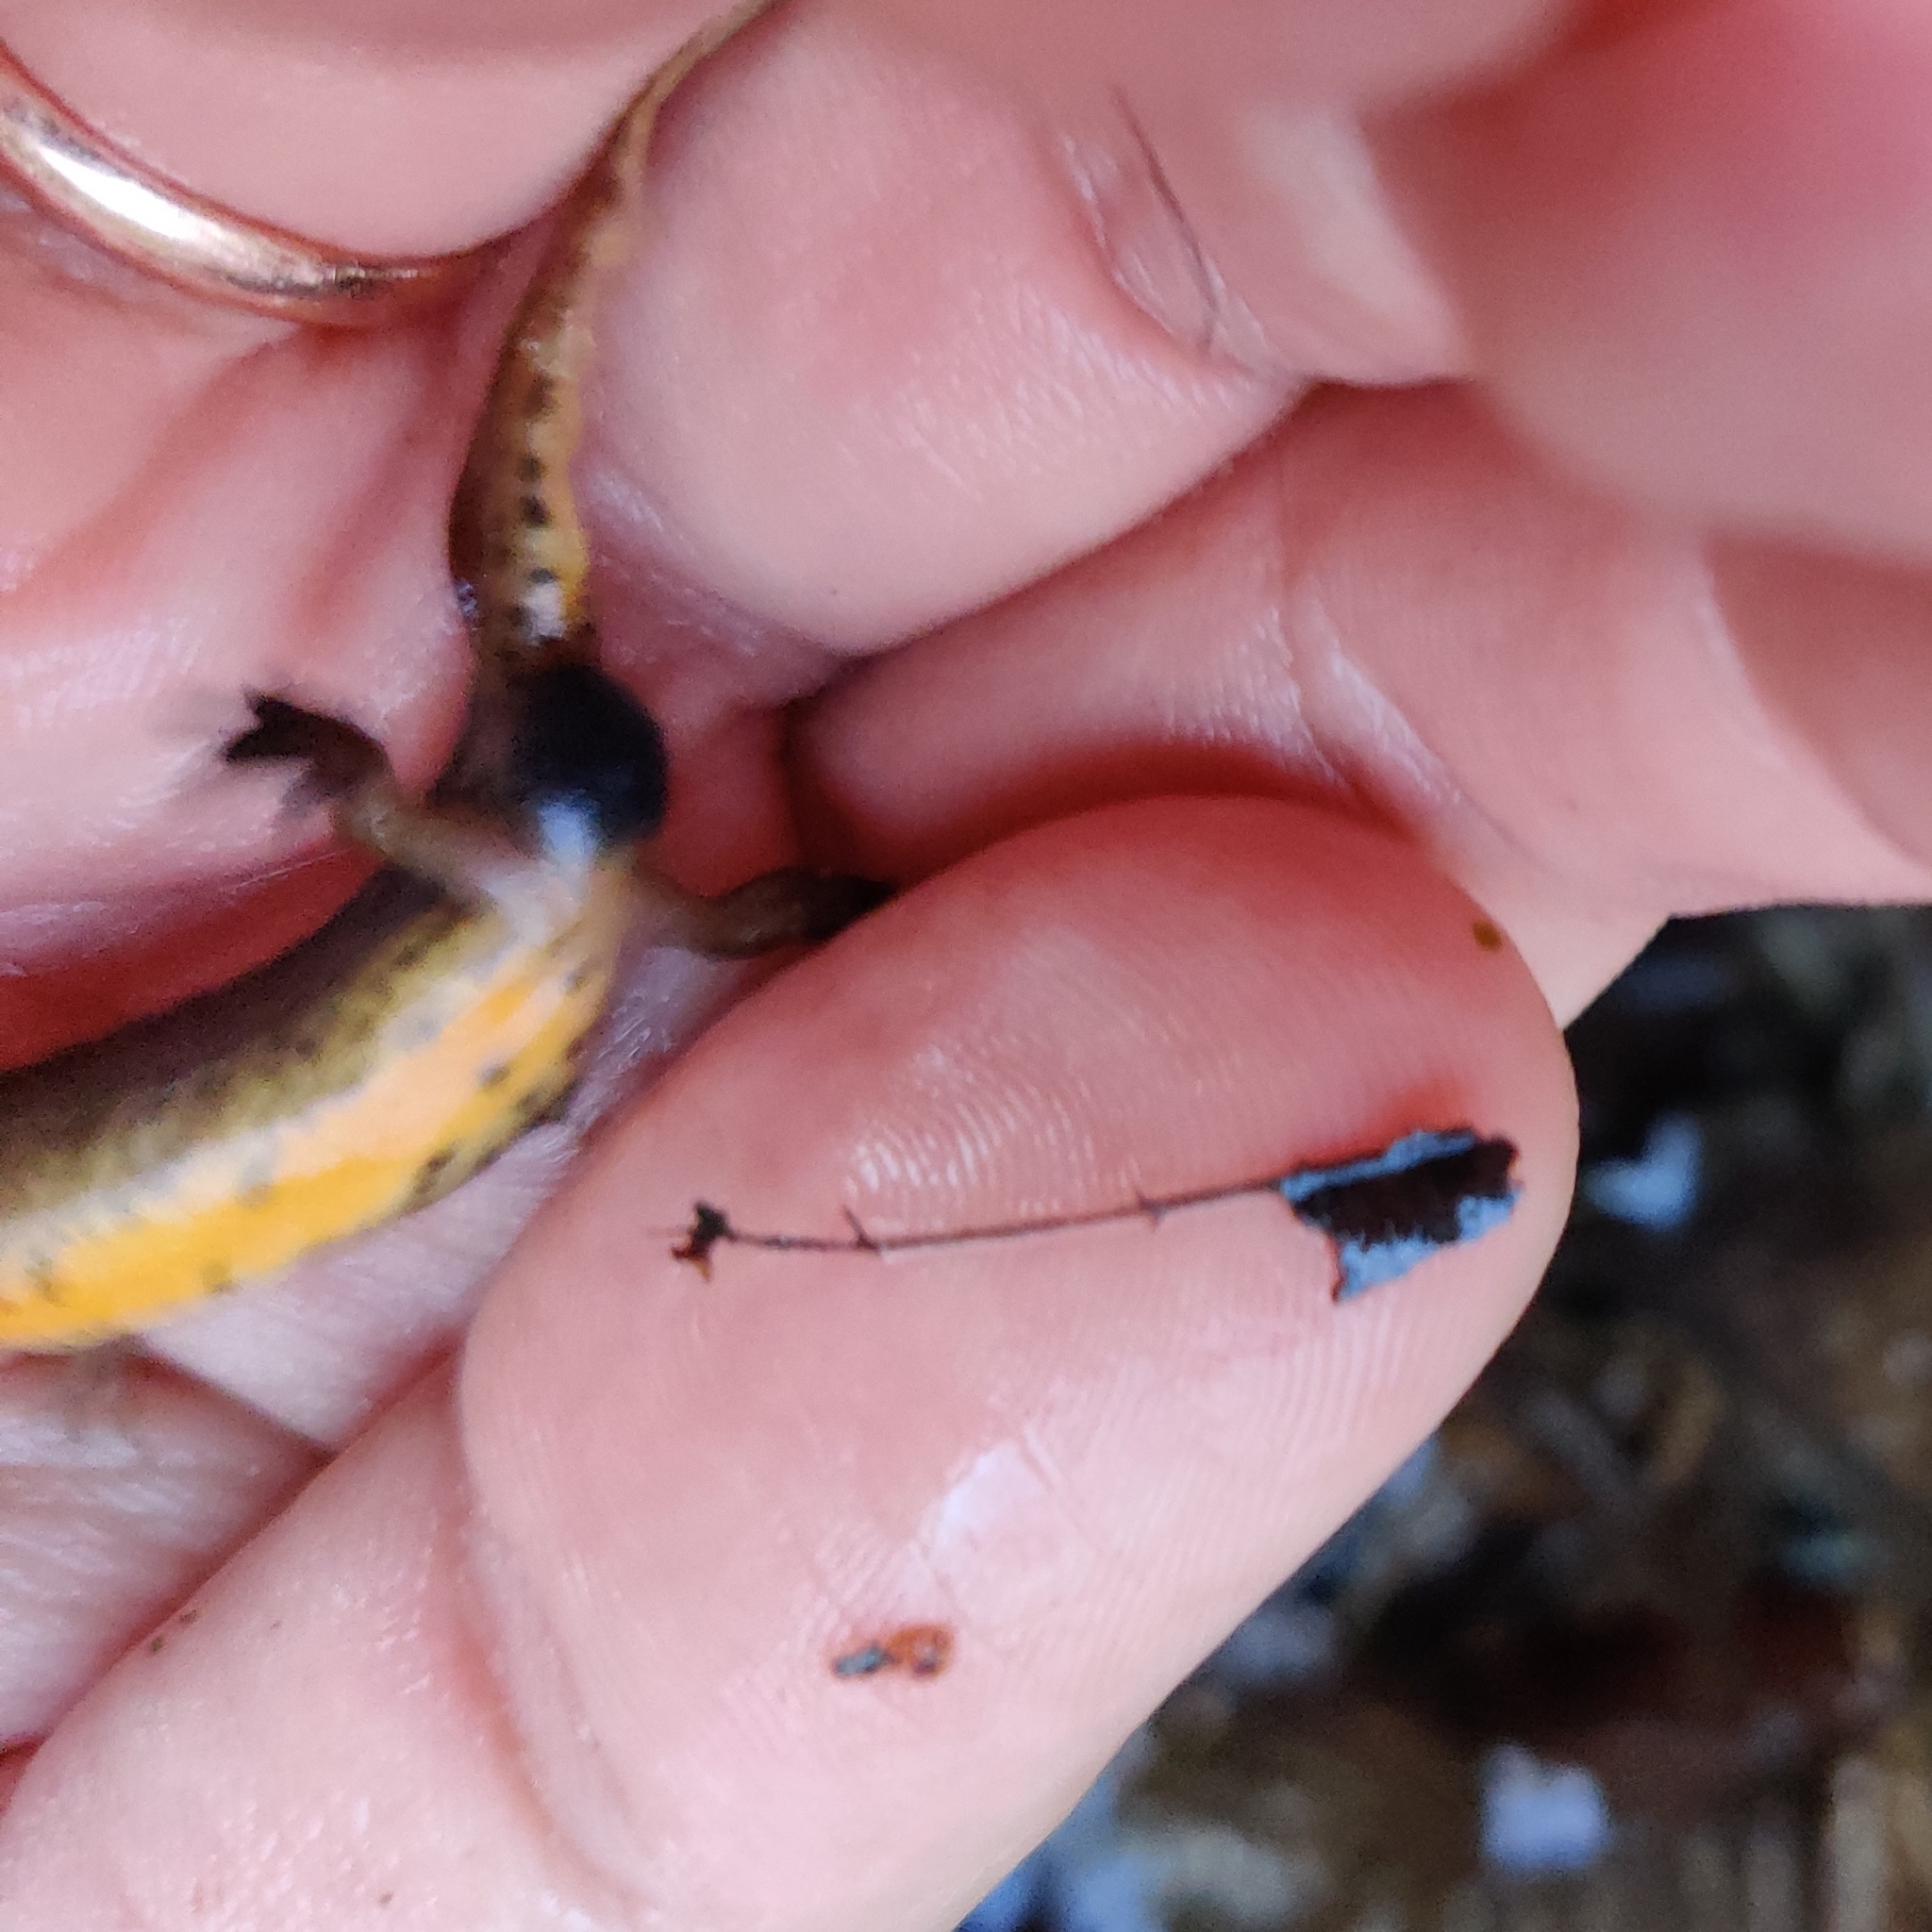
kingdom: Animalia
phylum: Chordata
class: Amphibia
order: Caudata
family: Salamandridae
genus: Lissotriton
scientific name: Lissotriton helveticus
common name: Palmate newt
